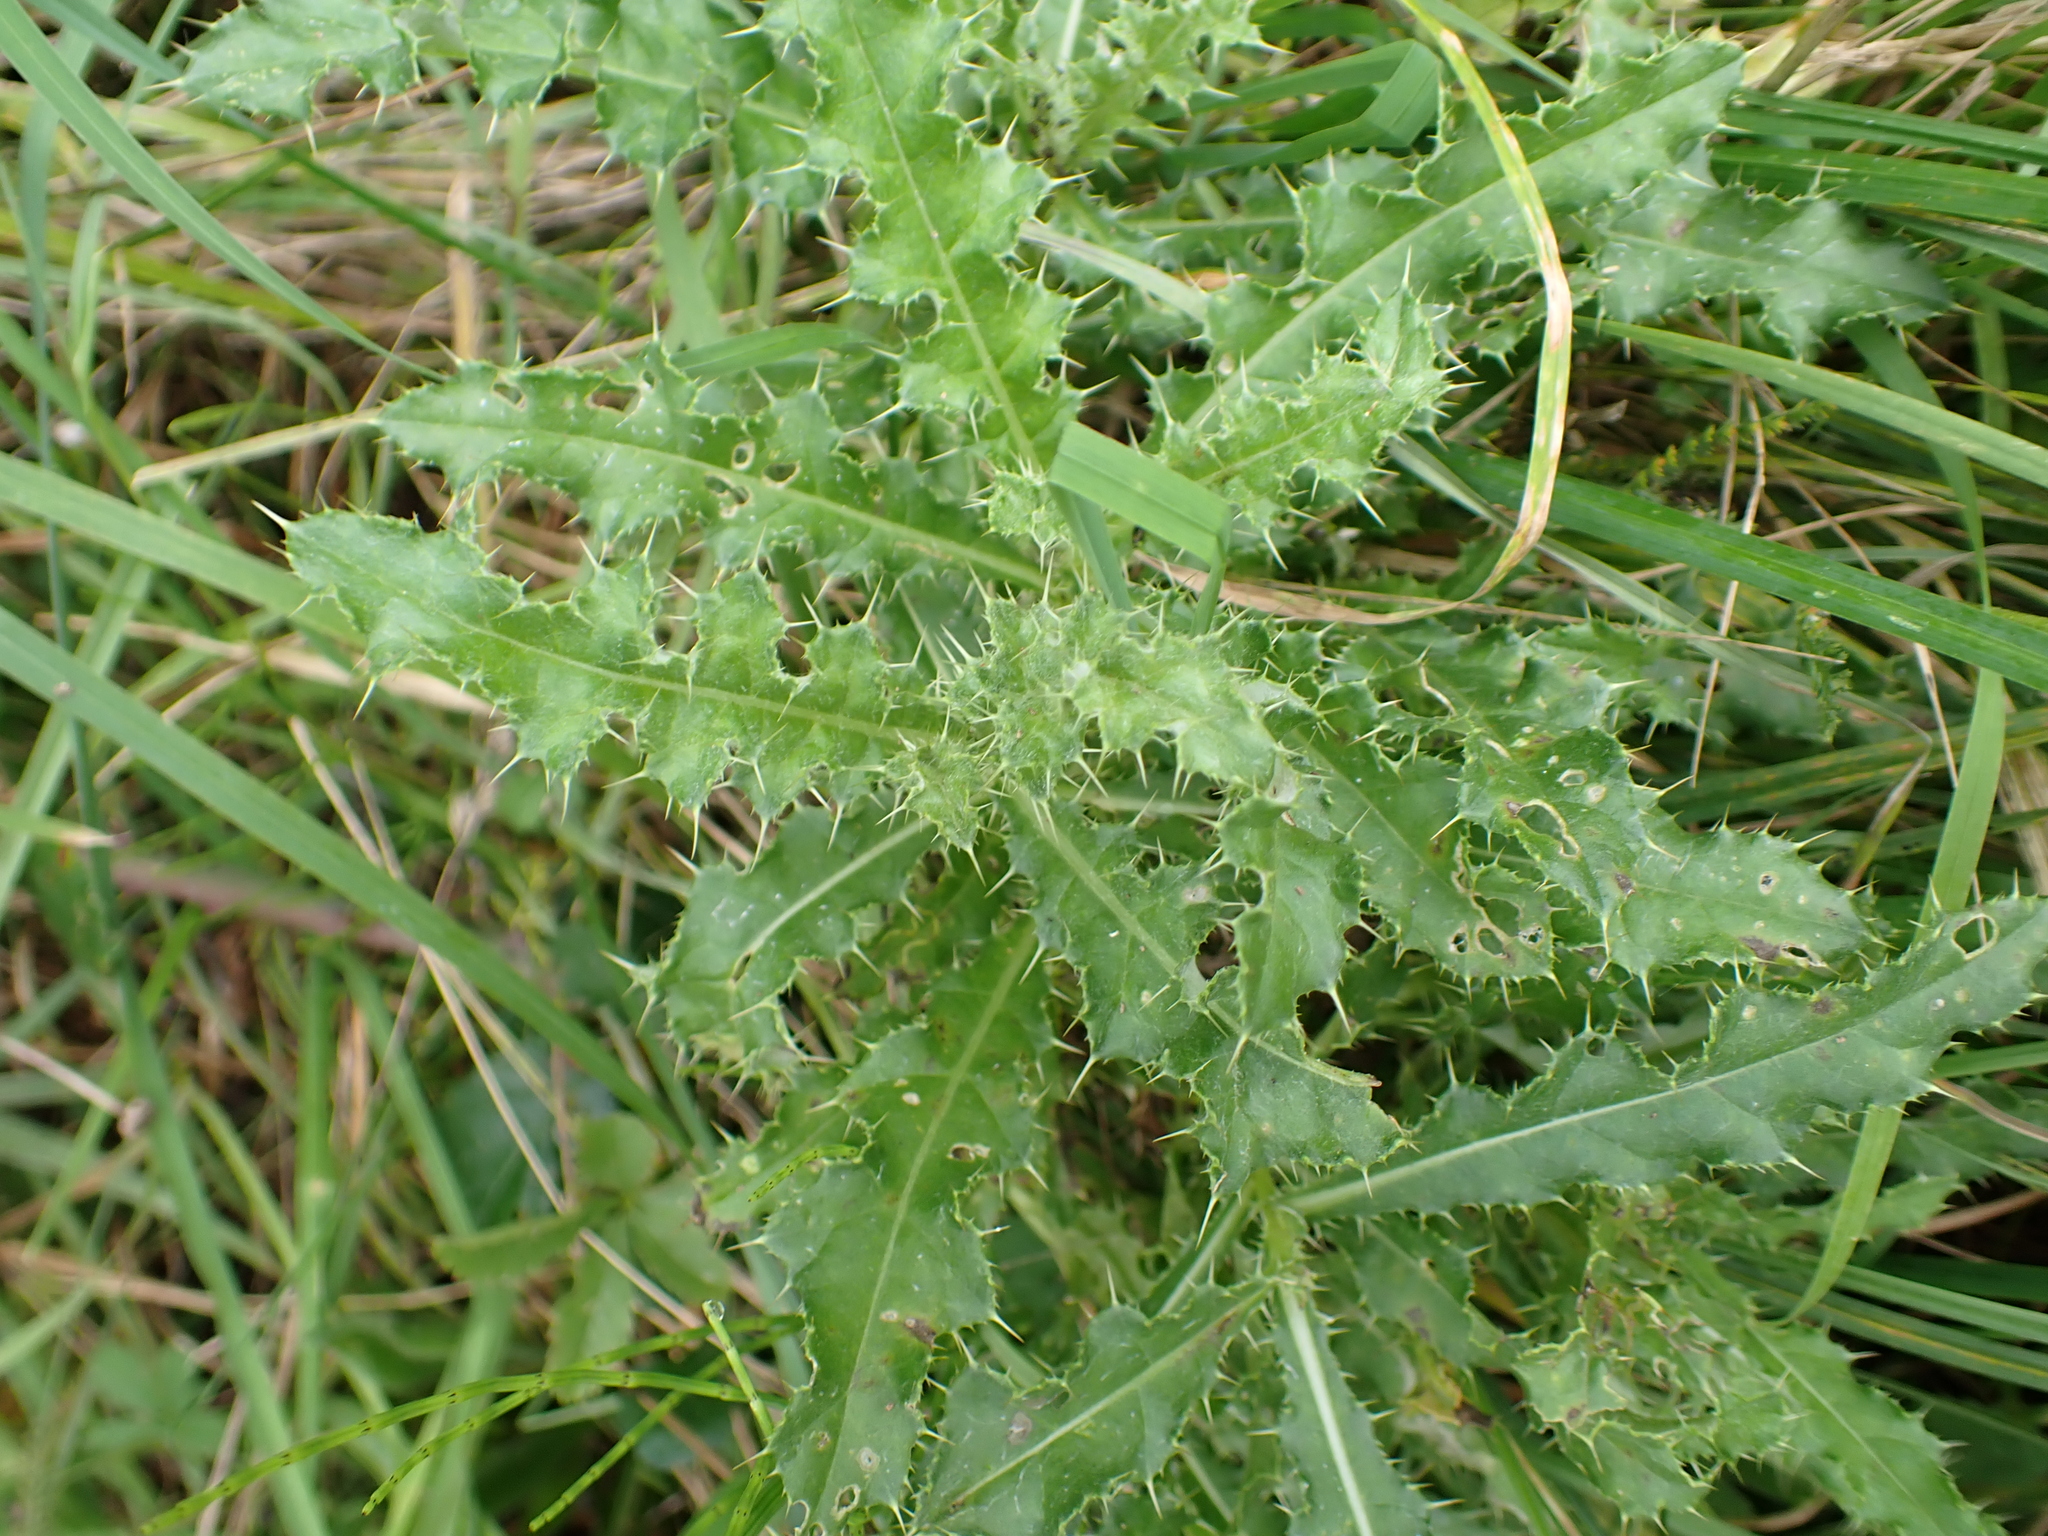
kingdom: Plantae
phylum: Tracheophyta
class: Magnoliopsida
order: Asterales
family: Asteraceae
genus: Cirsium
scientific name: Cirsium arvense
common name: Creeping thistle
